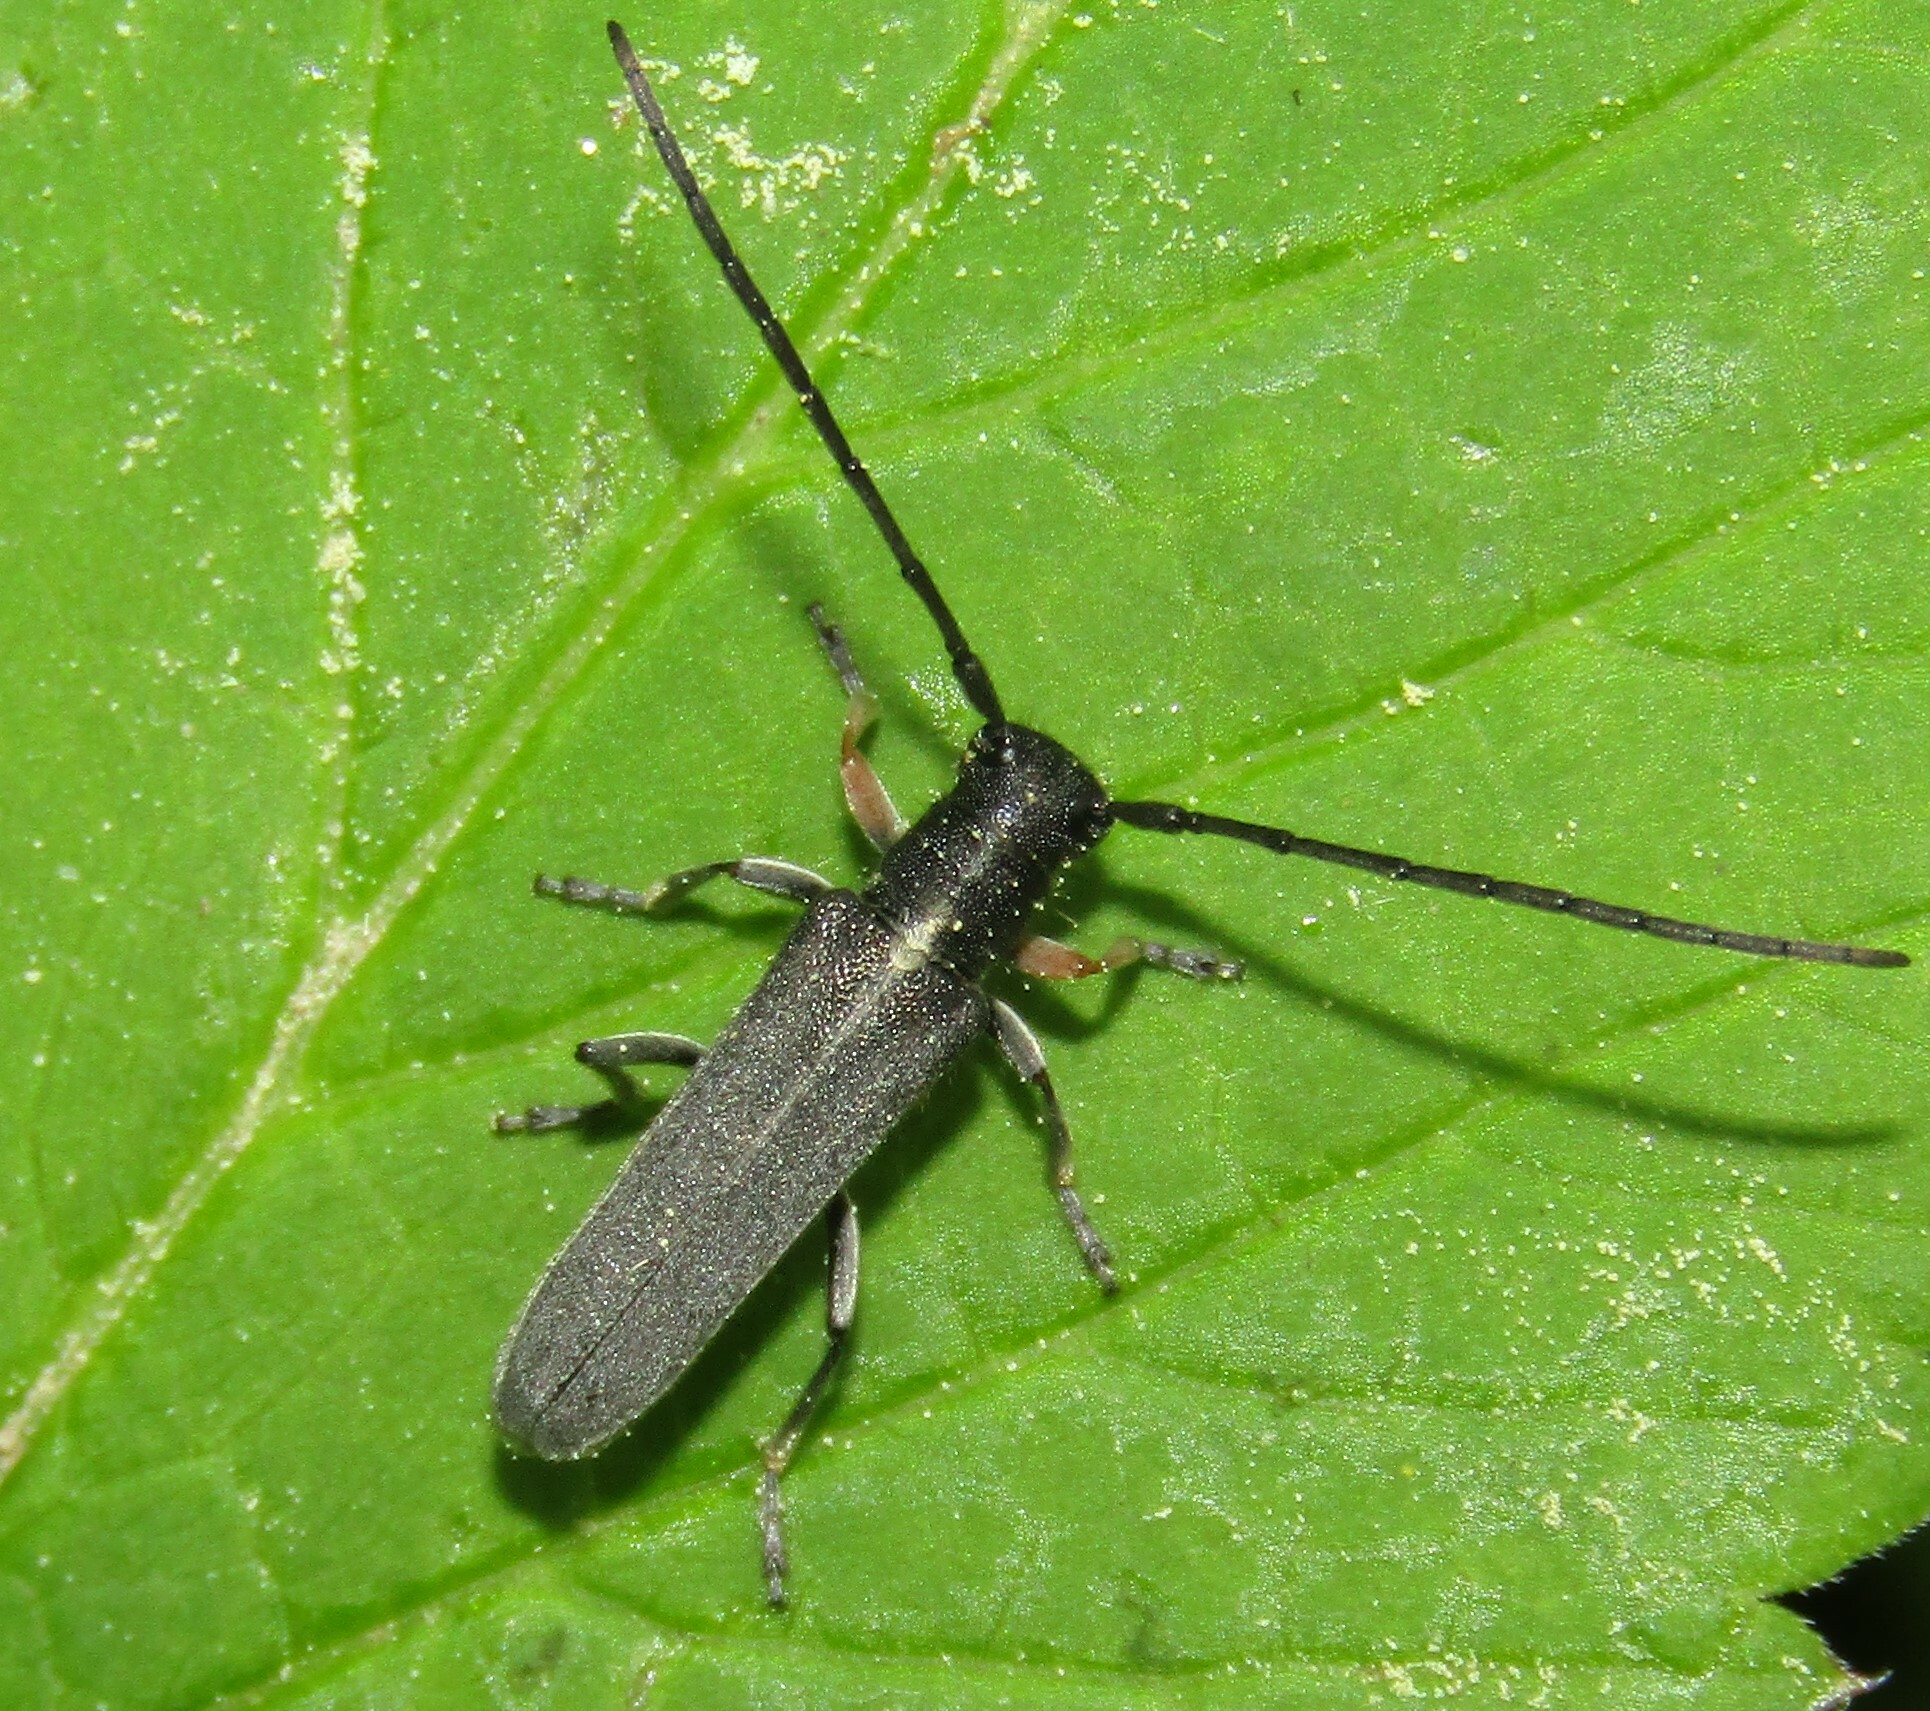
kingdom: Animalia
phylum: Arthropoda
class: Insecta
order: Coleoptera
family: Cerambycidae
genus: Phytoecia
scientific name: Phytoecia cylindrica
